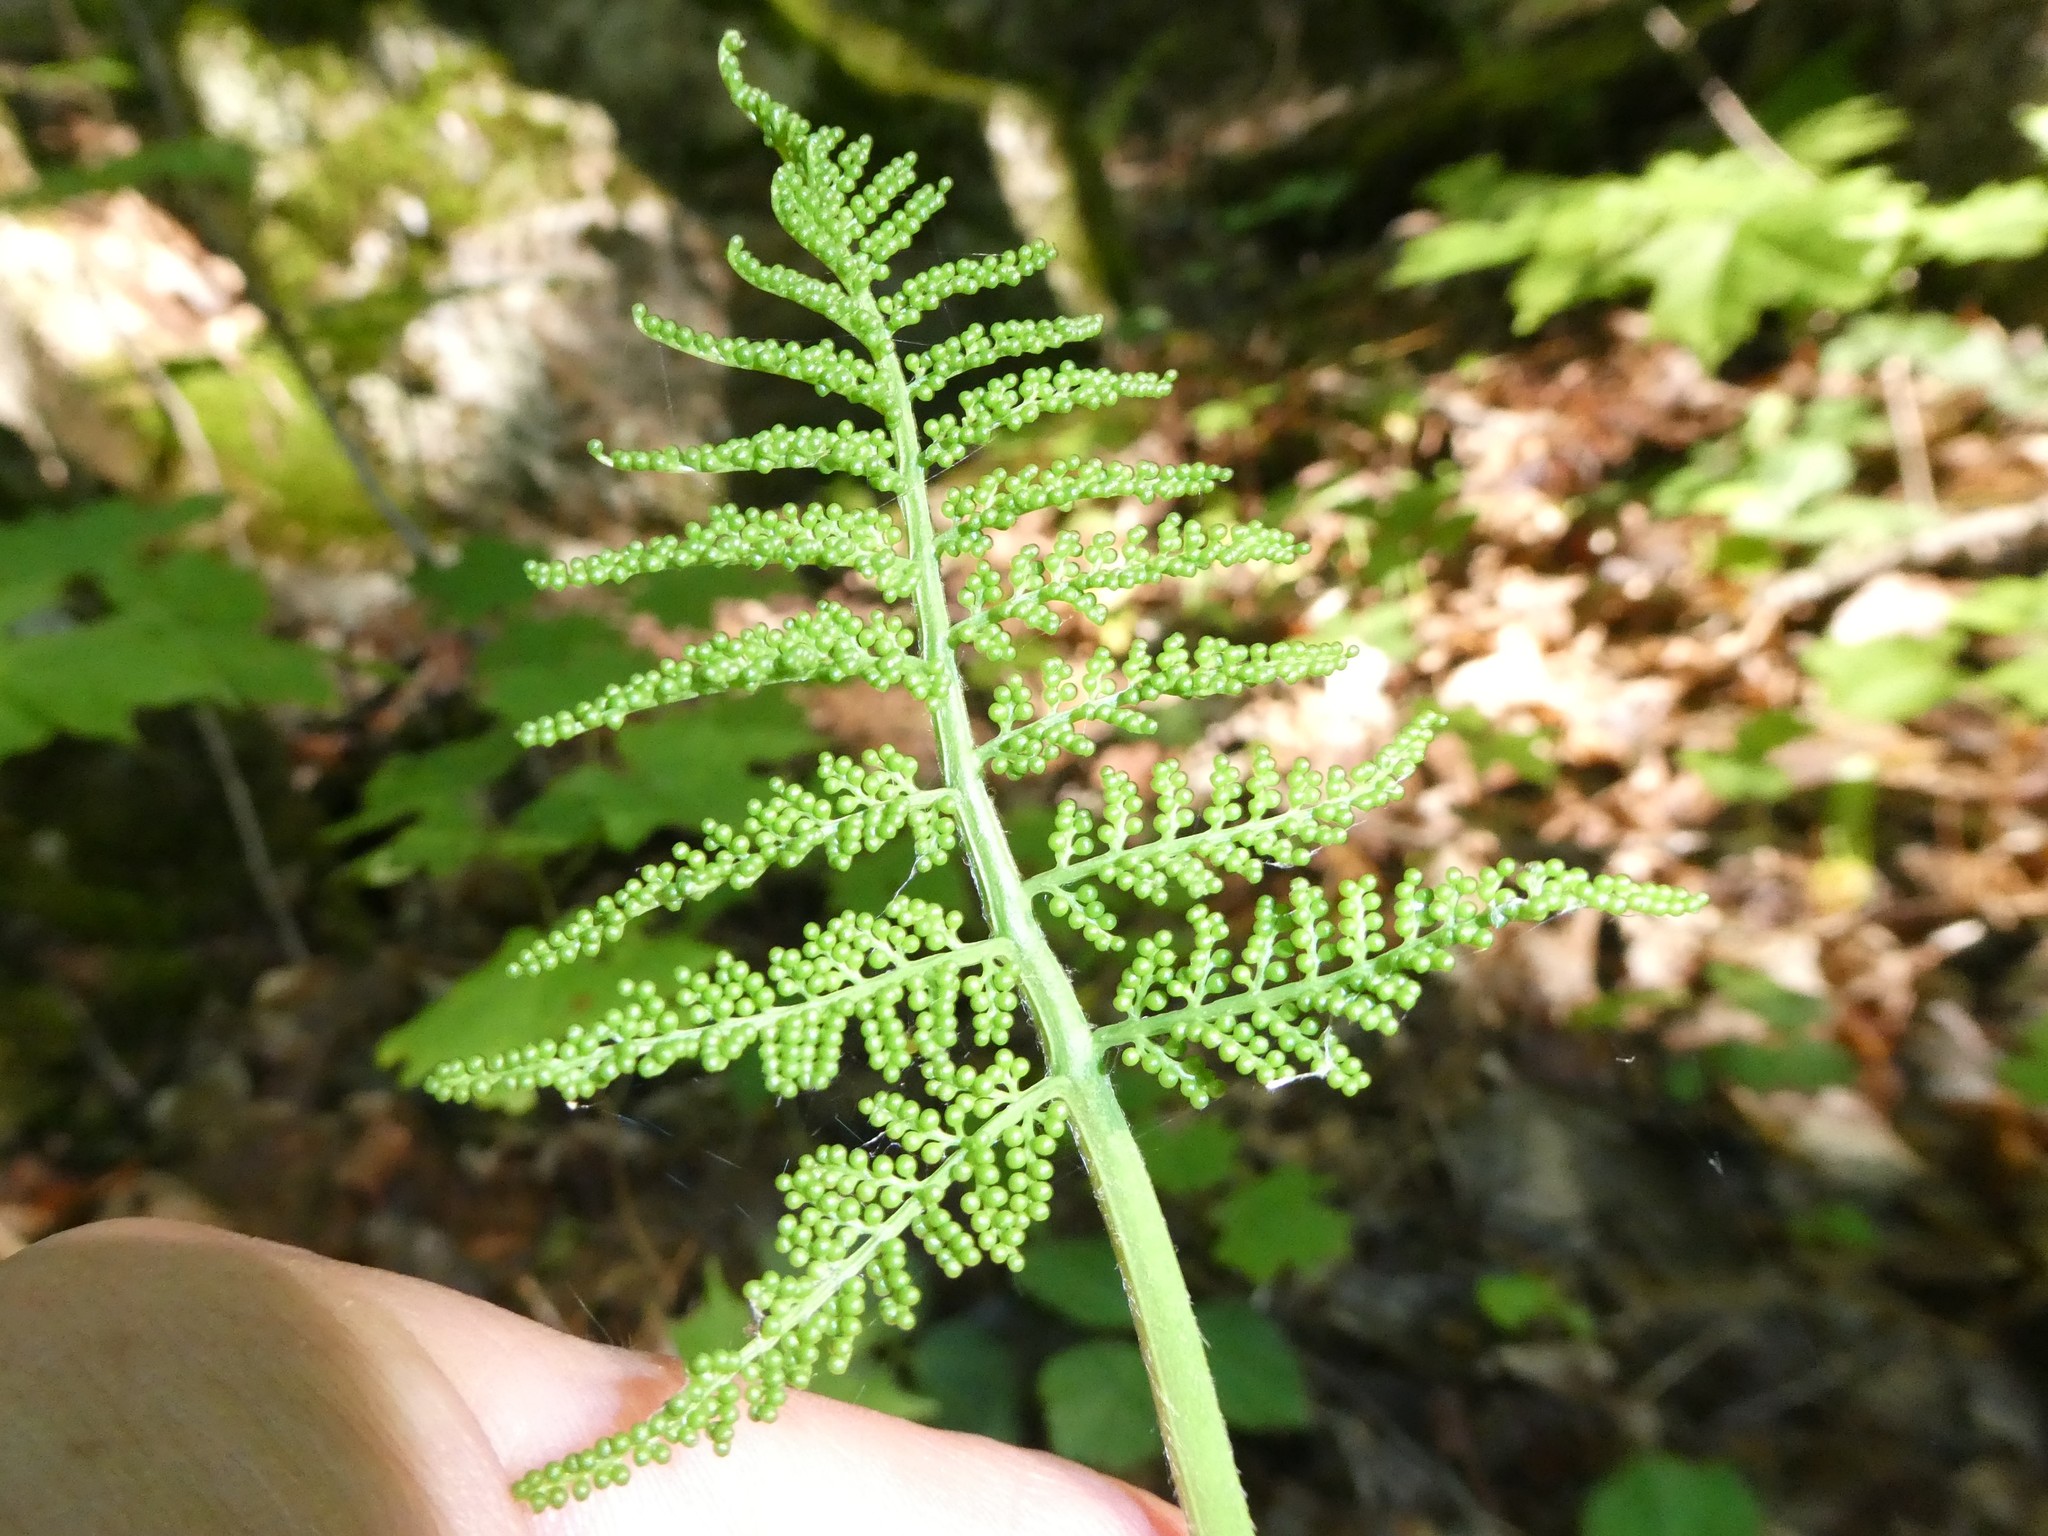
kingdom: Plantae
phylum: Tracheophyta
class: Polypodiopsida
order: Ophioglossales
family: Ophioglossaceae
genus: Botrypus
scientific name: Botrypus virginianus
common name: Common grapefern
